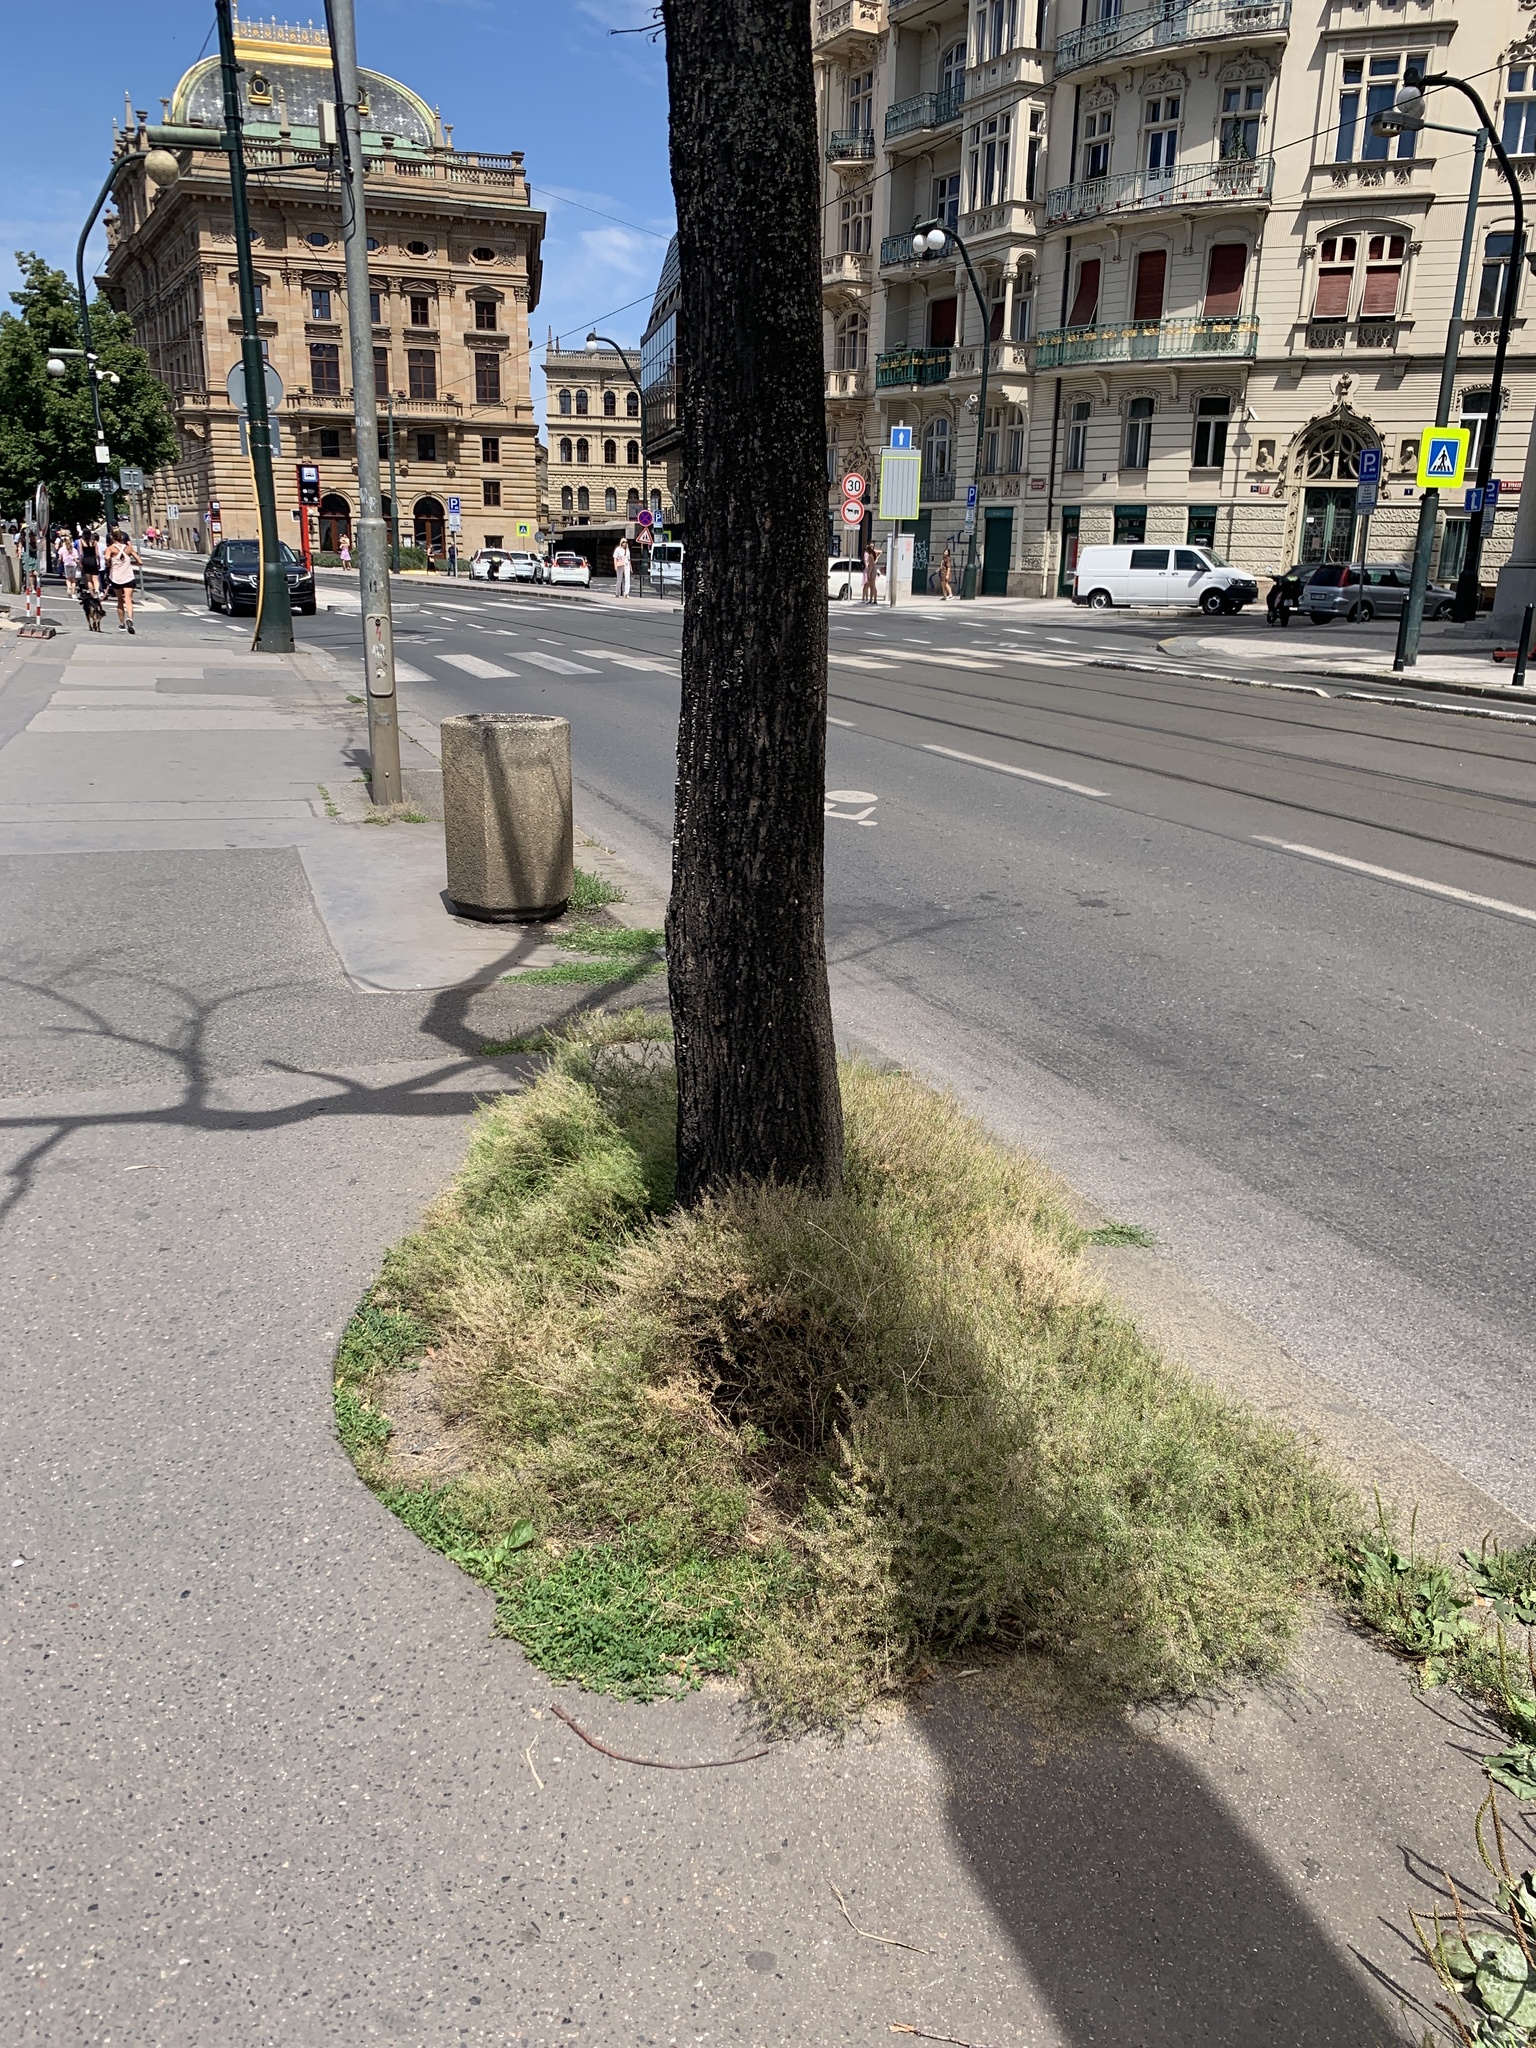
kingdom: Plantae
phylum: Tracheophyta
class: Magnoliopsida
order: Brassicales
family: Brassicaceae
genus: Lepidium
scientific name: Lepidium ruderale
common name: Narrow-leaved pepperwort
